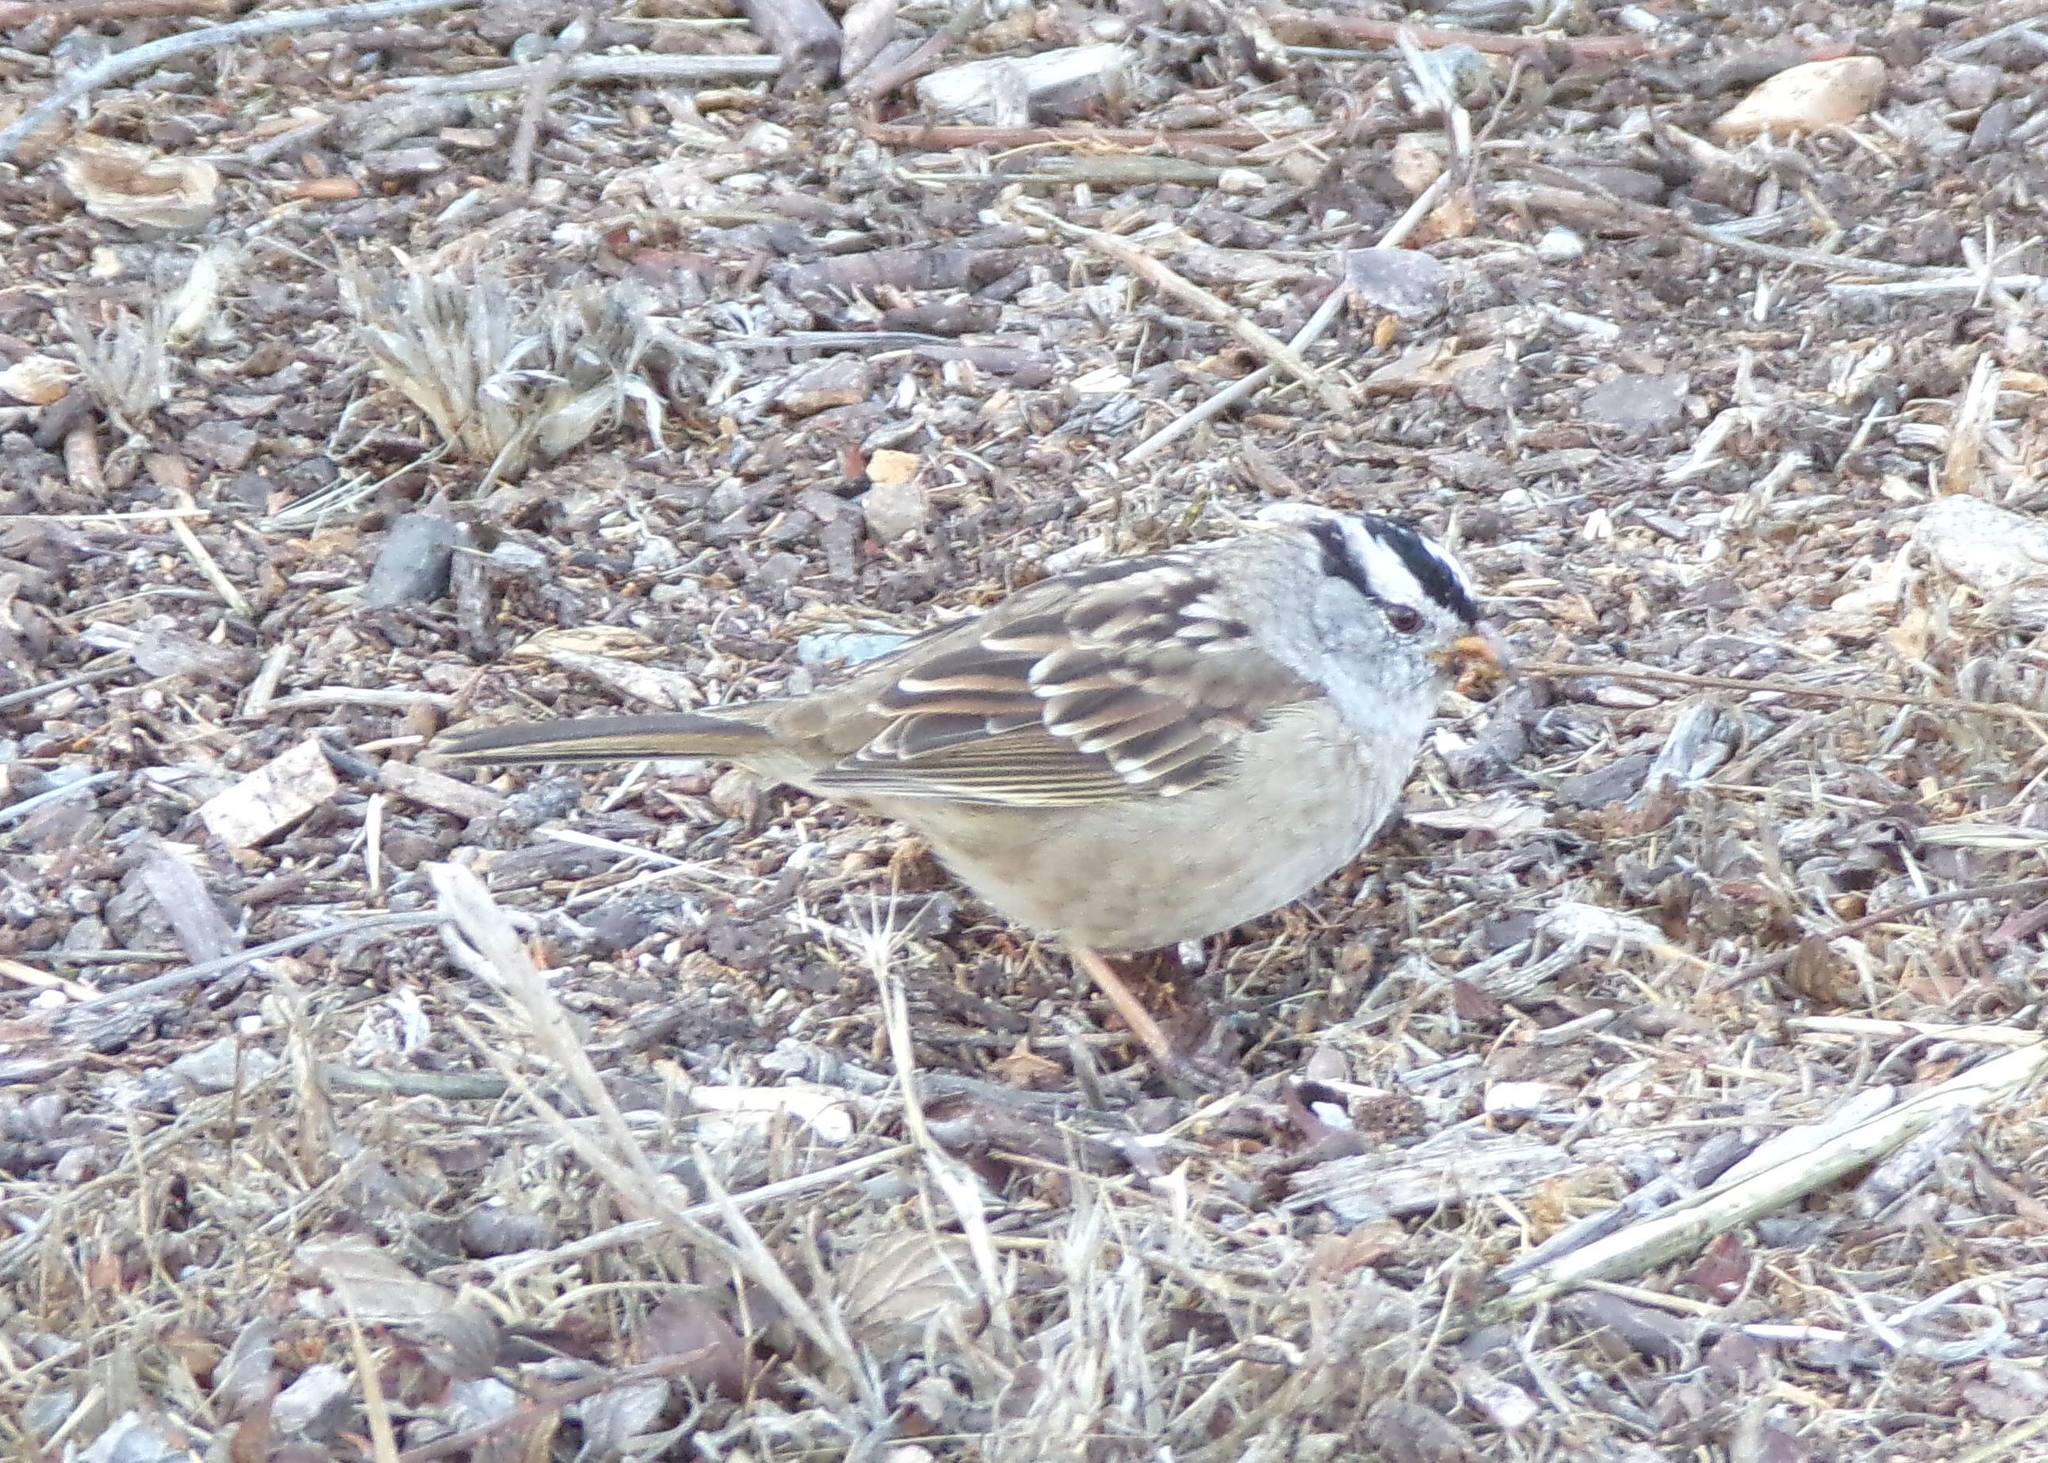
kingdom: Animalia
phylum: Chordata
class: Aves
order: Passeriformes
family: Passerellidae
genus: Zonotrichia
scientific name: Zonotrichia leucophrys
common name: White-crowned sparrow
